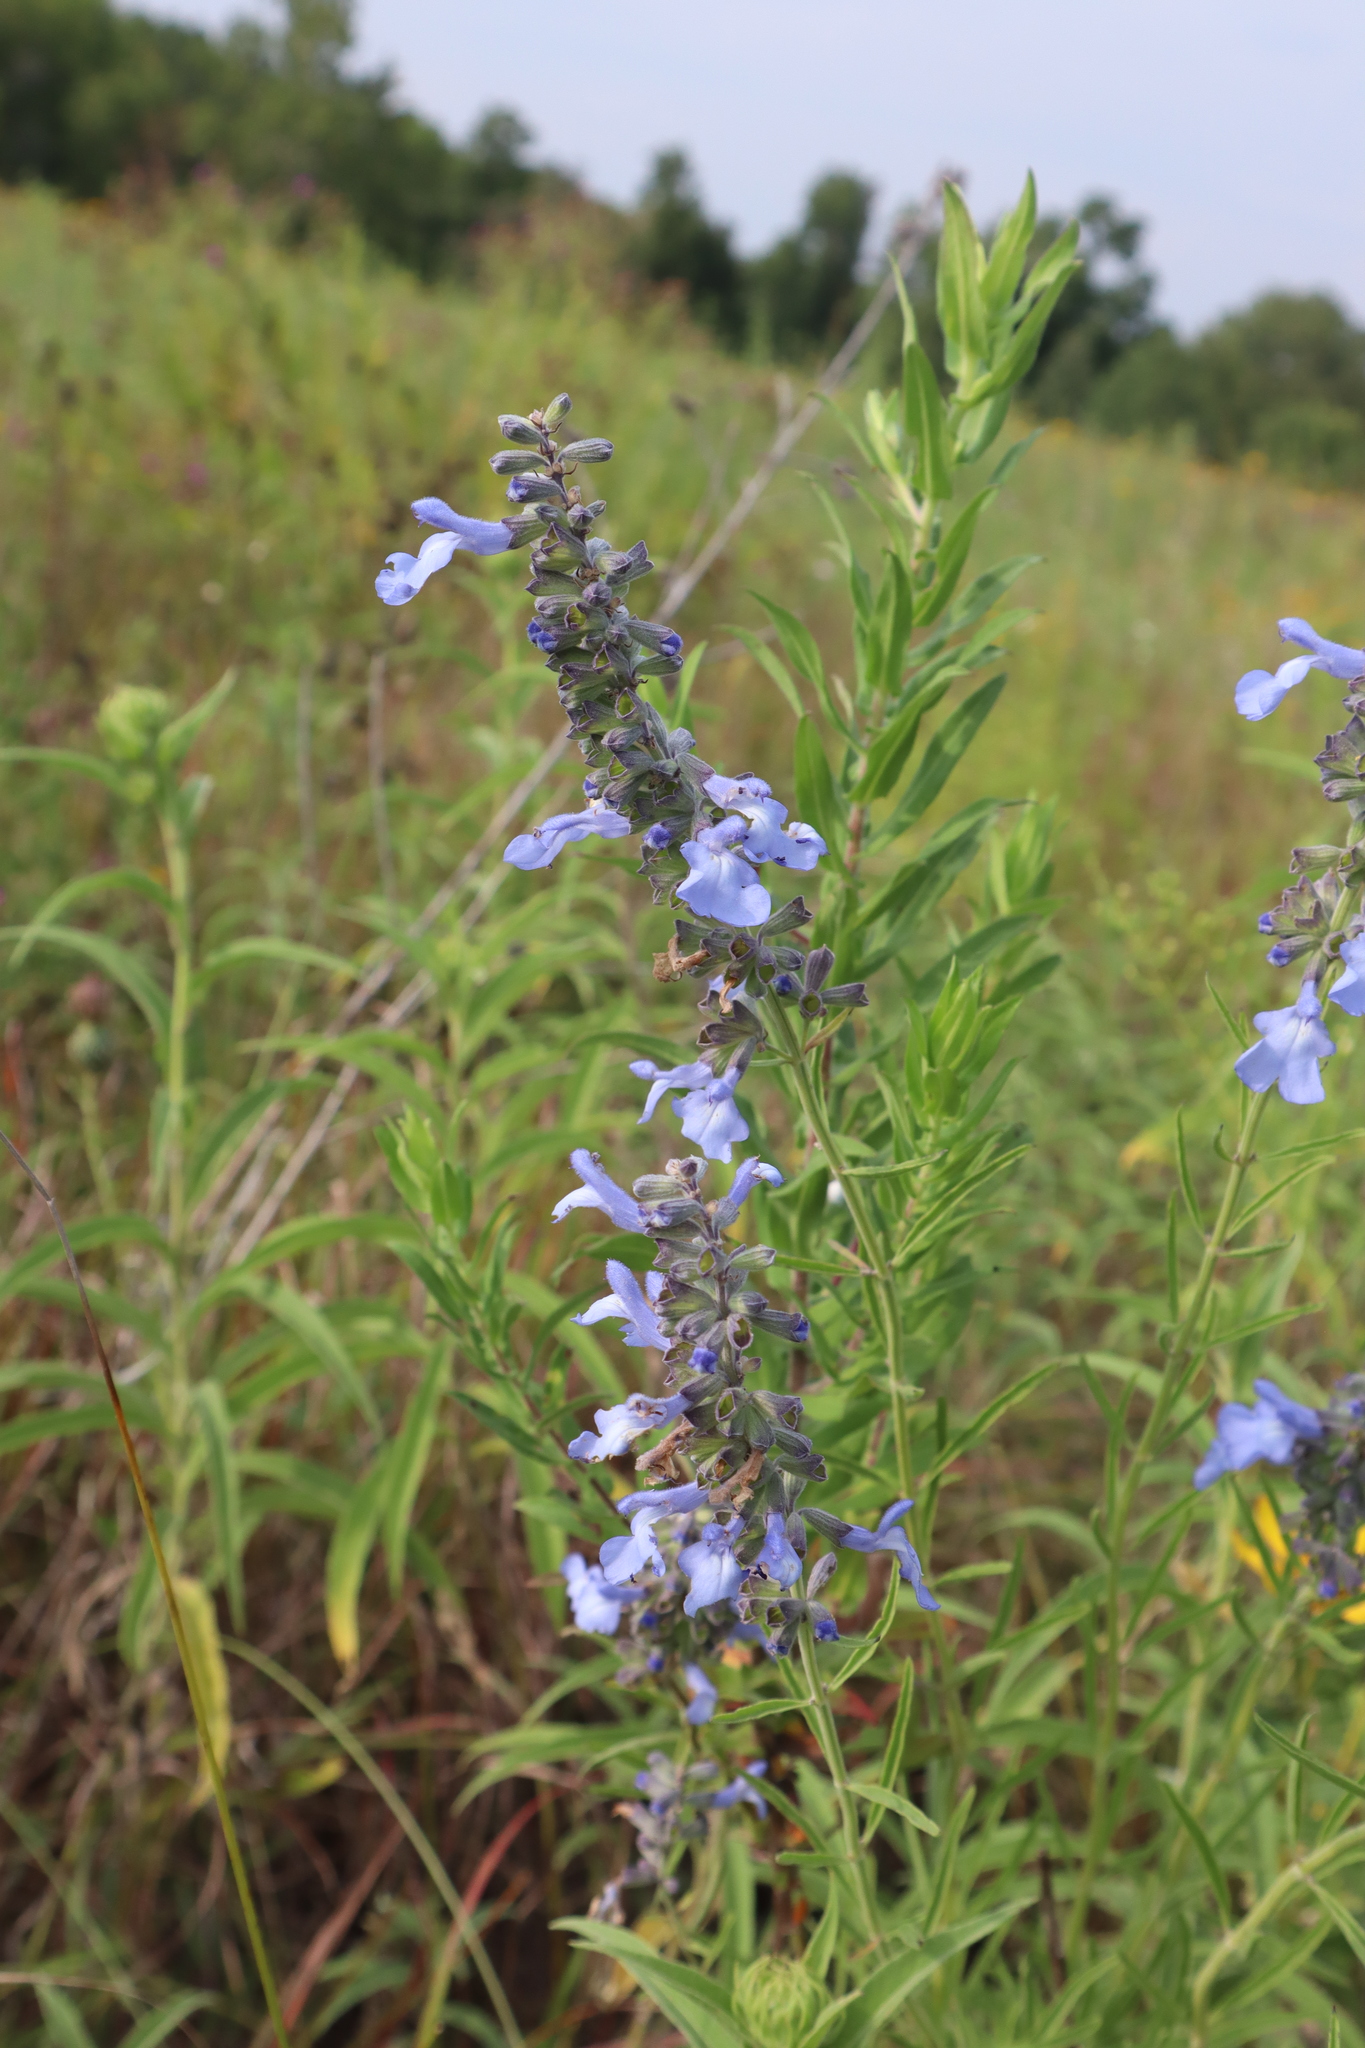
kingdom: Plantae
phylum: Tracheophyta
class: Magnoliopsida
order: Lamiales
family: Lamiaceae
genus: Salvia
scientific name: Salvia azurea
